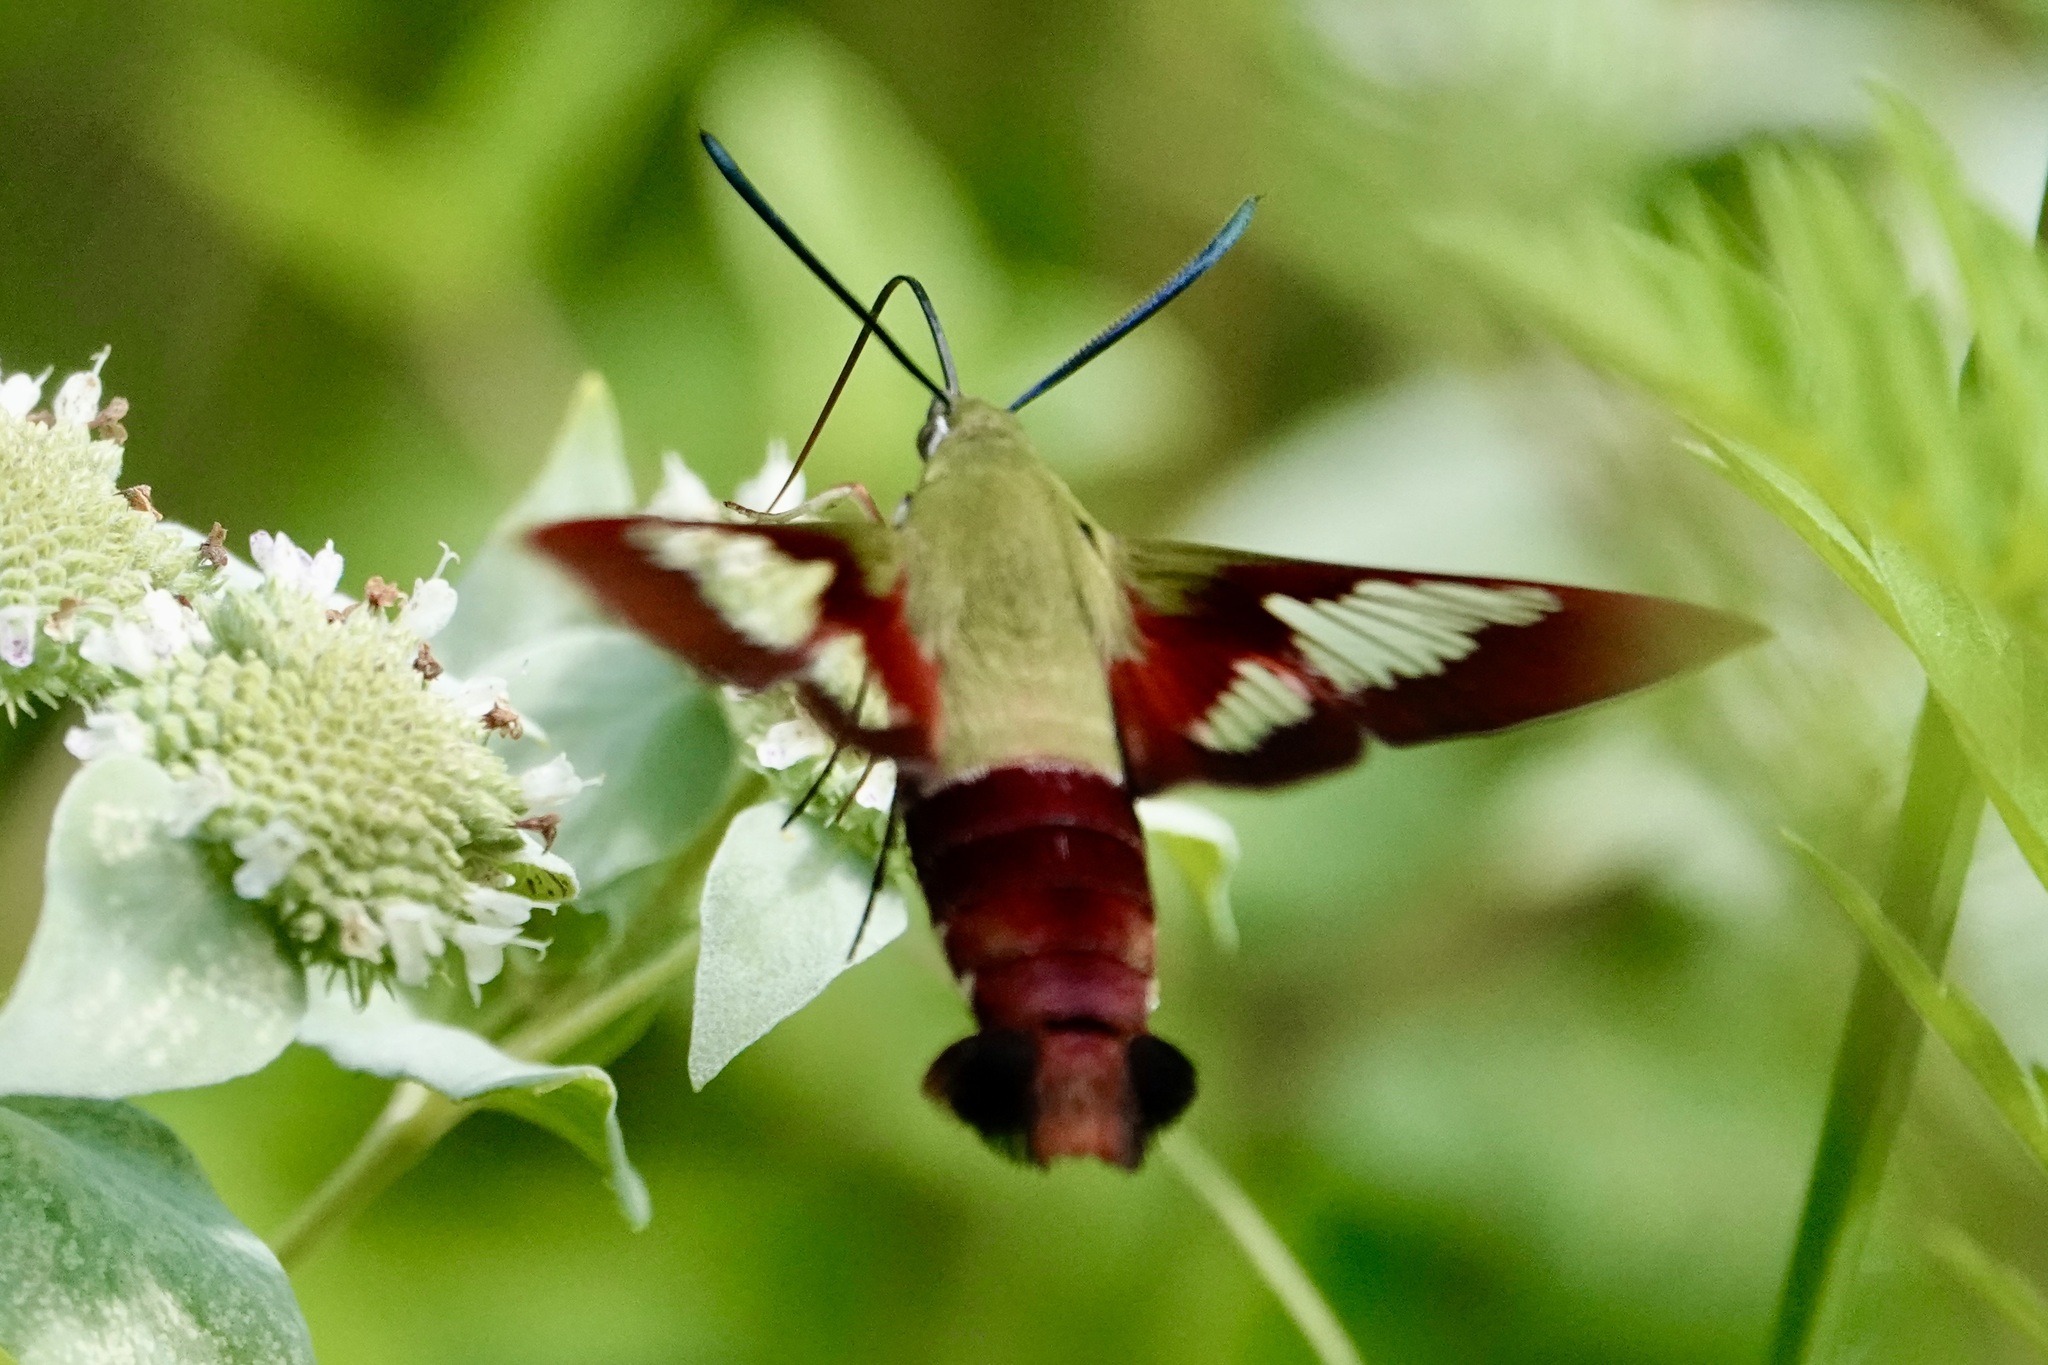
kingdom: Animalia
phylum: Arthropoda
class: Insecta
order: Lepidoptera
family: Sphingidae
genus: Hemaris
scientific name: Hemaris thysbe
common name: Common clear-wing
